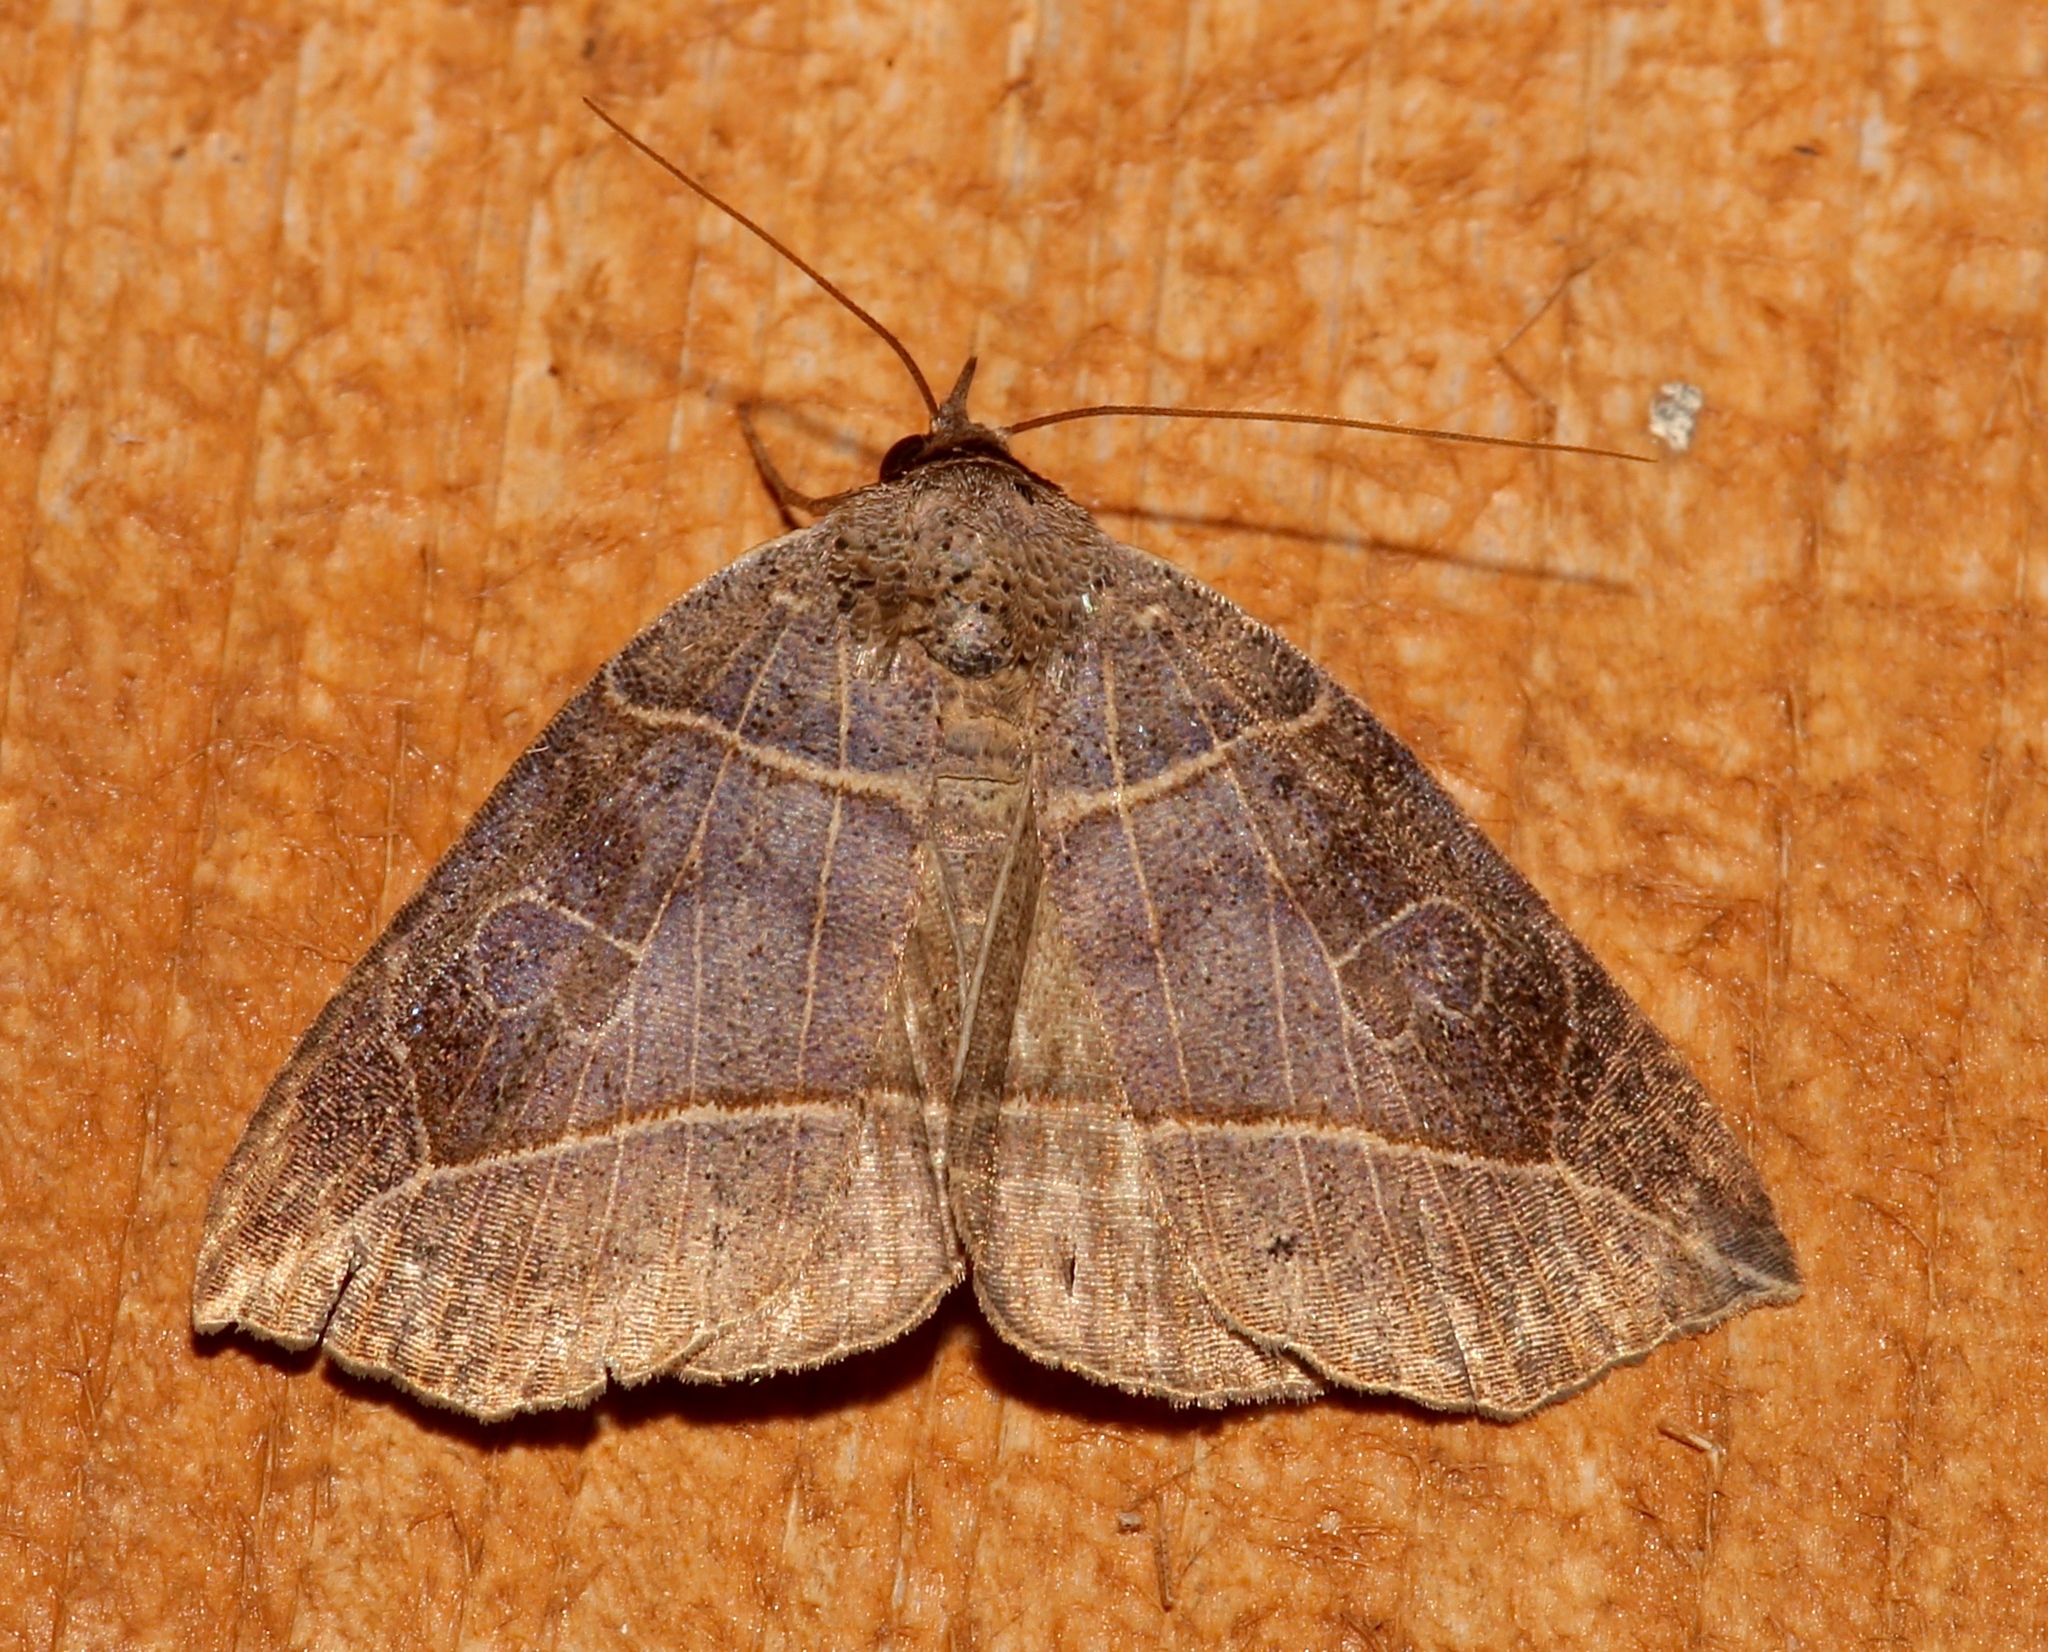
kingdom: Animalia
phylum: Arthropoda
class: Insecta
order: Lepidoptera
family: Erebidae
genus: Isogona
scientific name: Isogona tenuis
